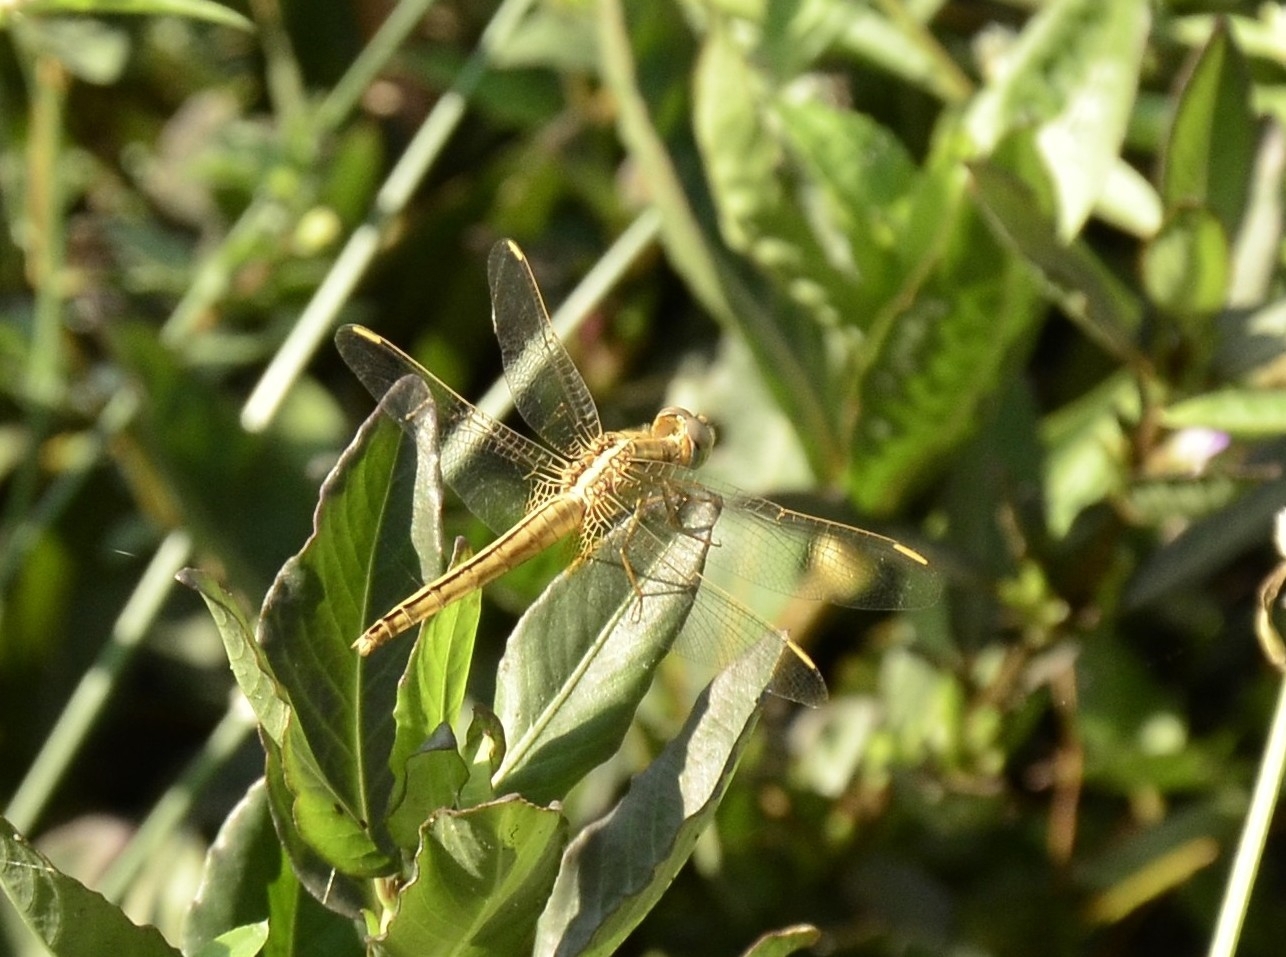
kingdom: Animalia
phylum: Arthropoda
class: Insecta
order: Odonata
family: Libellulidae
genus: Crocothemis
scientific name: Crocothemis servilia
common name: Scarlet skimmer
